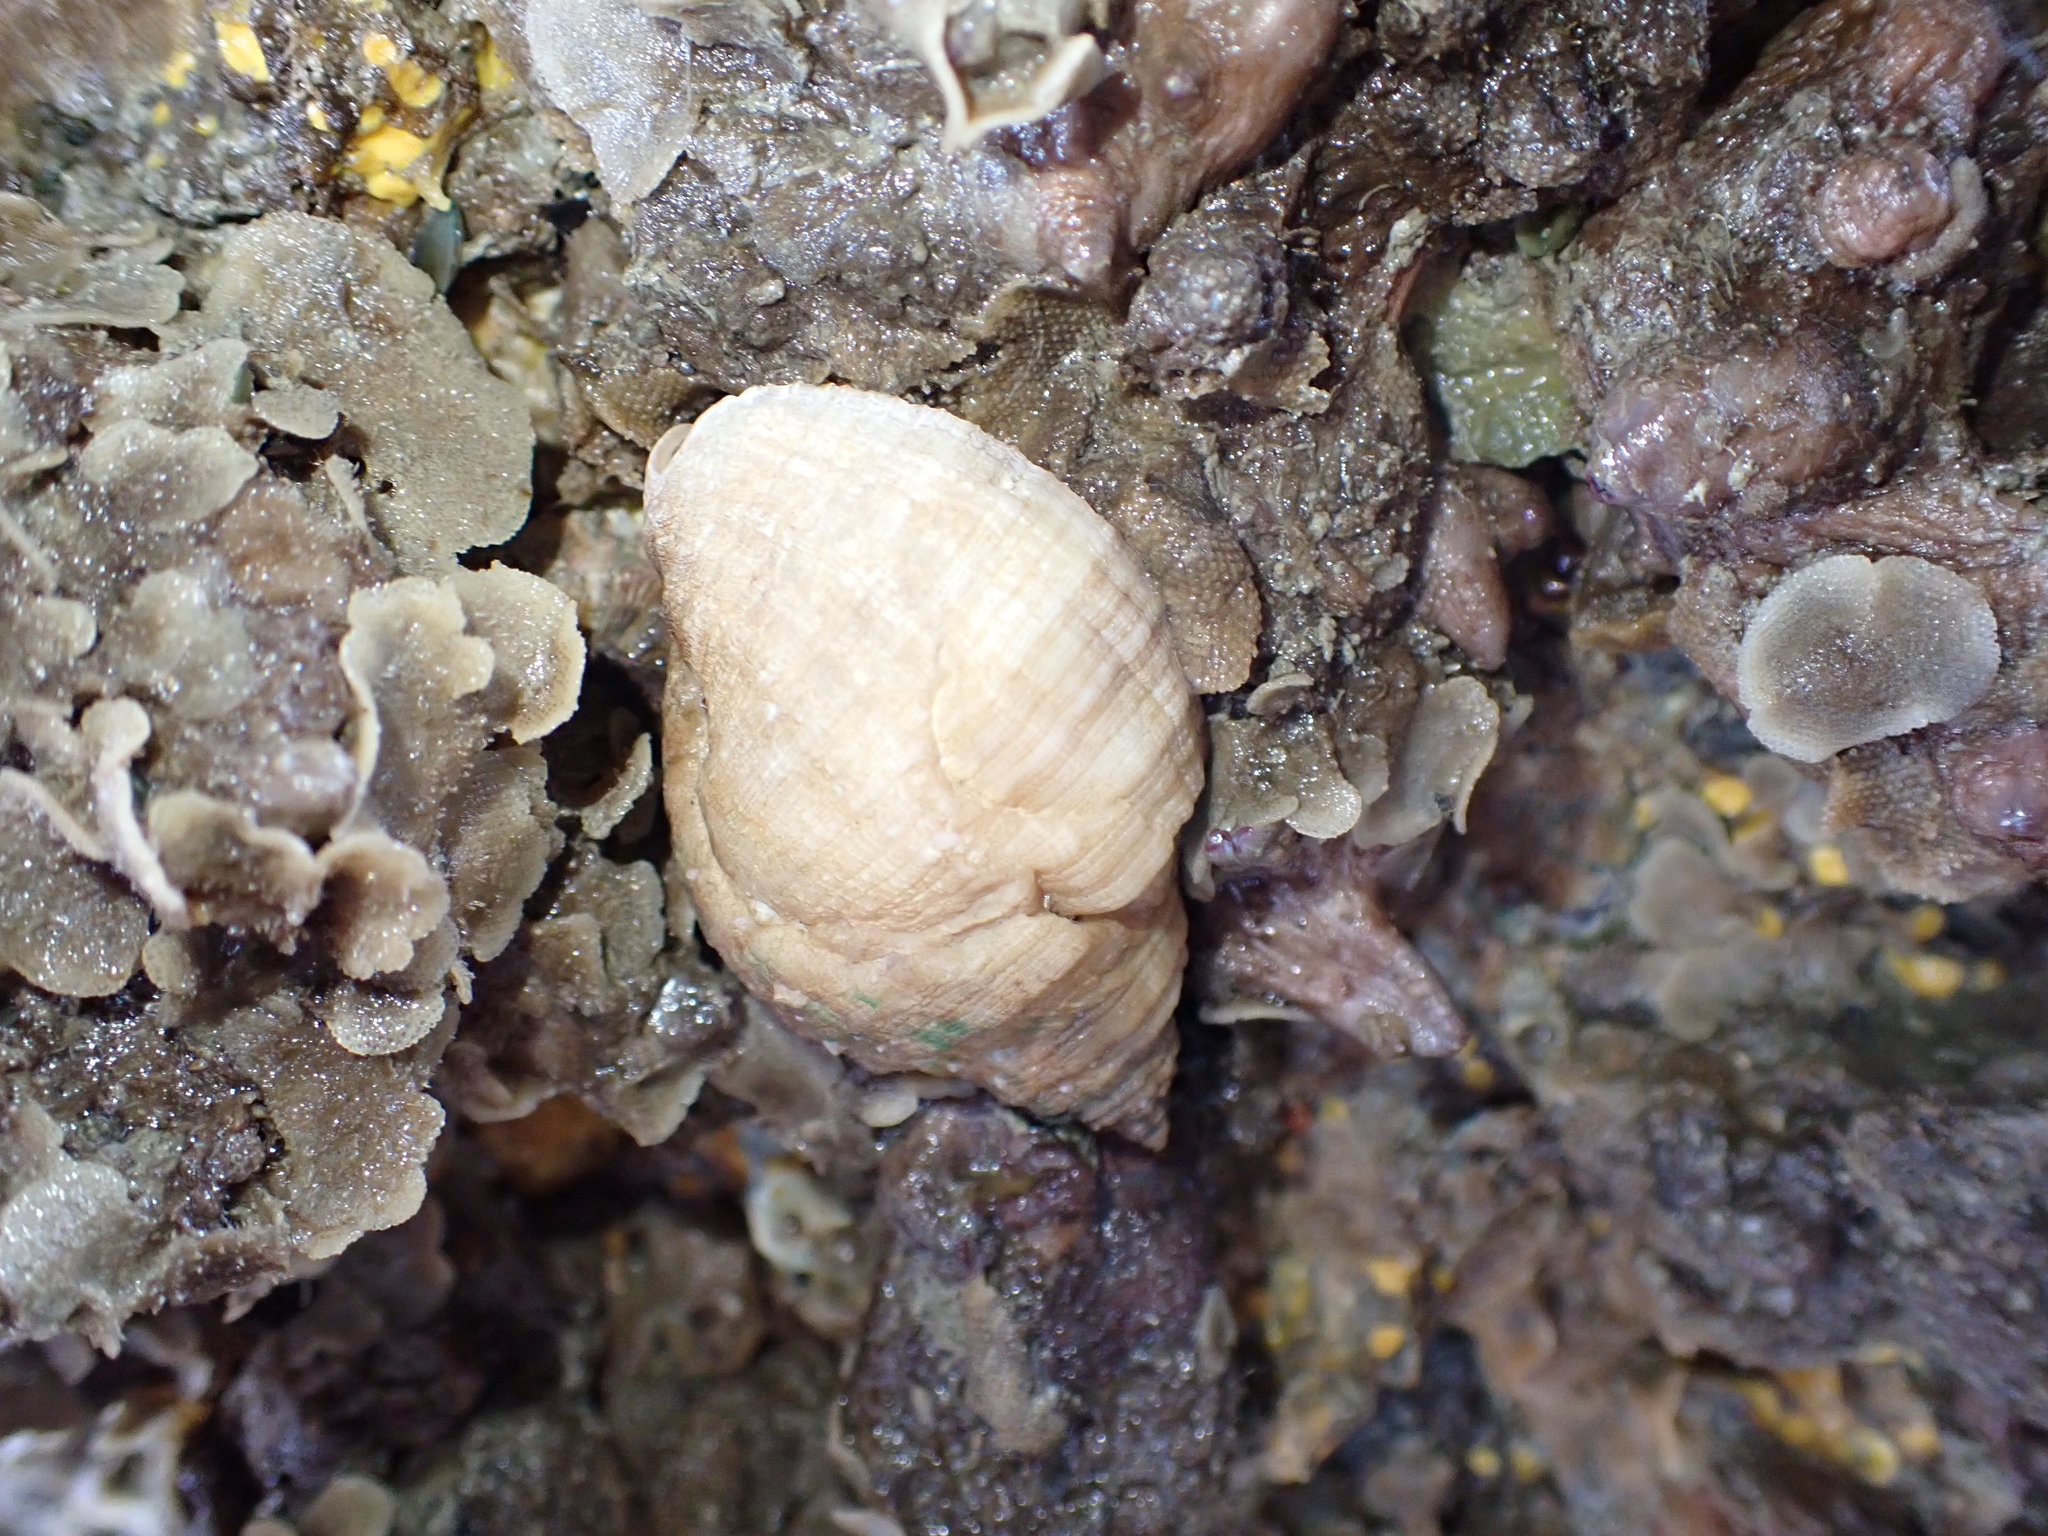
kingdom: Animalia
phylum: Mollusca
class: Gastropoda
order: Neogastropoda
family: Muricidae
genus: Dicathais
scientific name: Dicathais orbita
